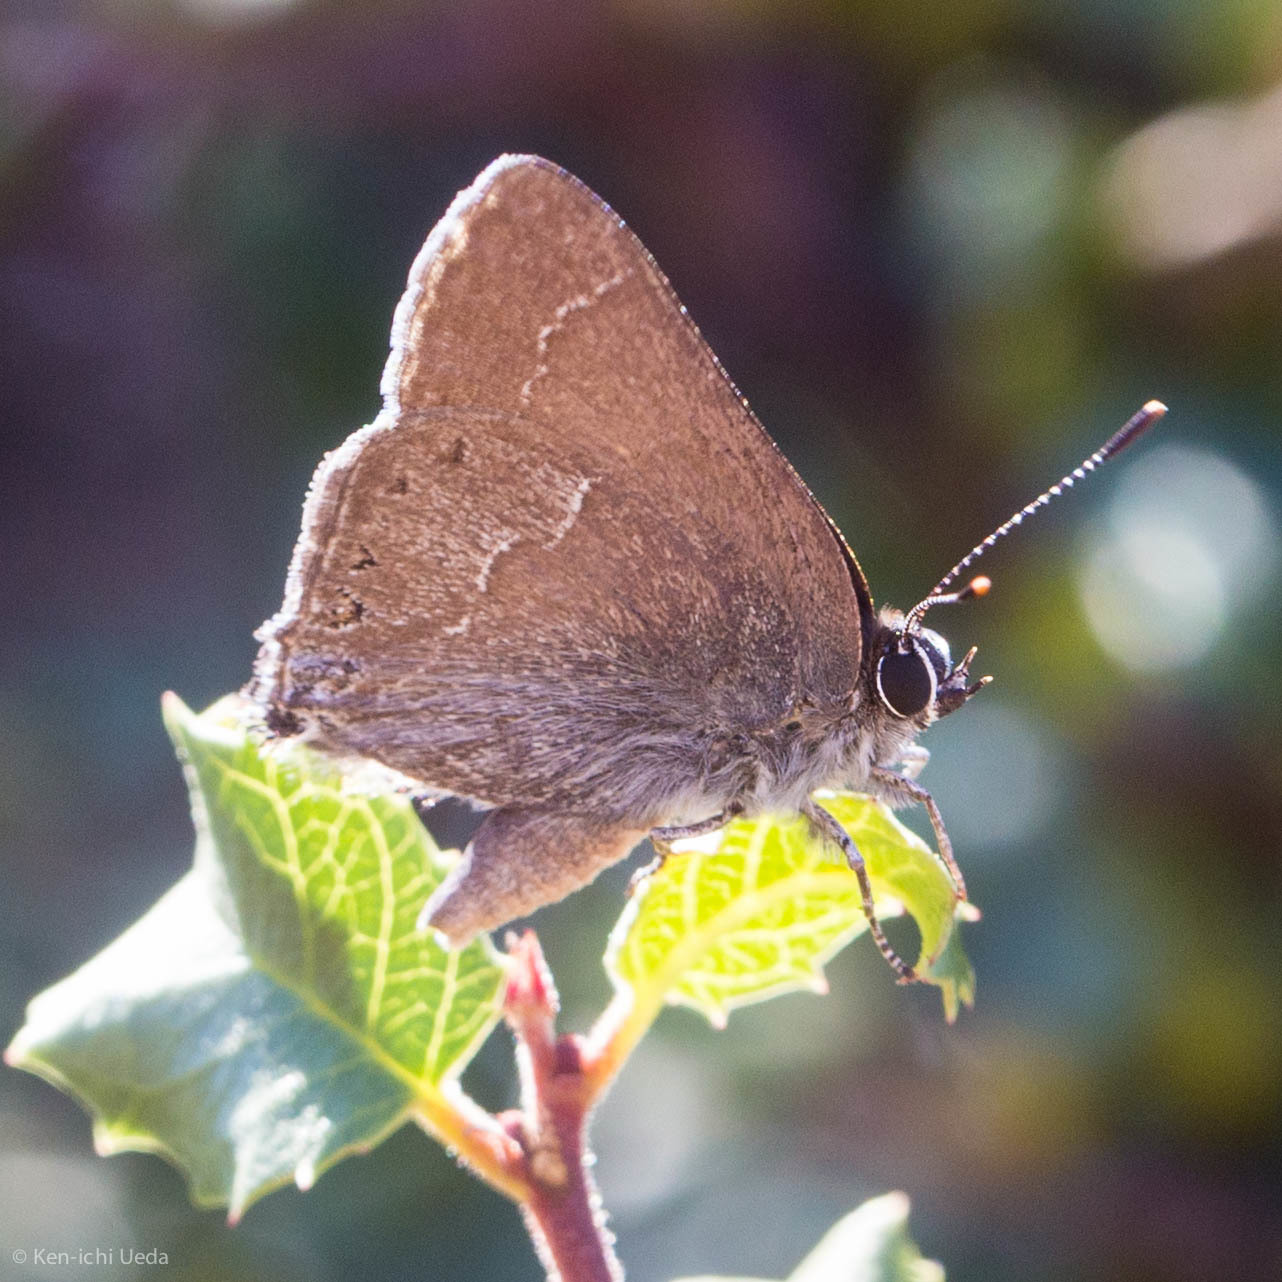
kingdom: Animalia
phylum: Arthropoda
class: Insecta
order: Lepidoptera
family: Lycaenidae
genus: Thecla
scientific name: Thecla tetra
